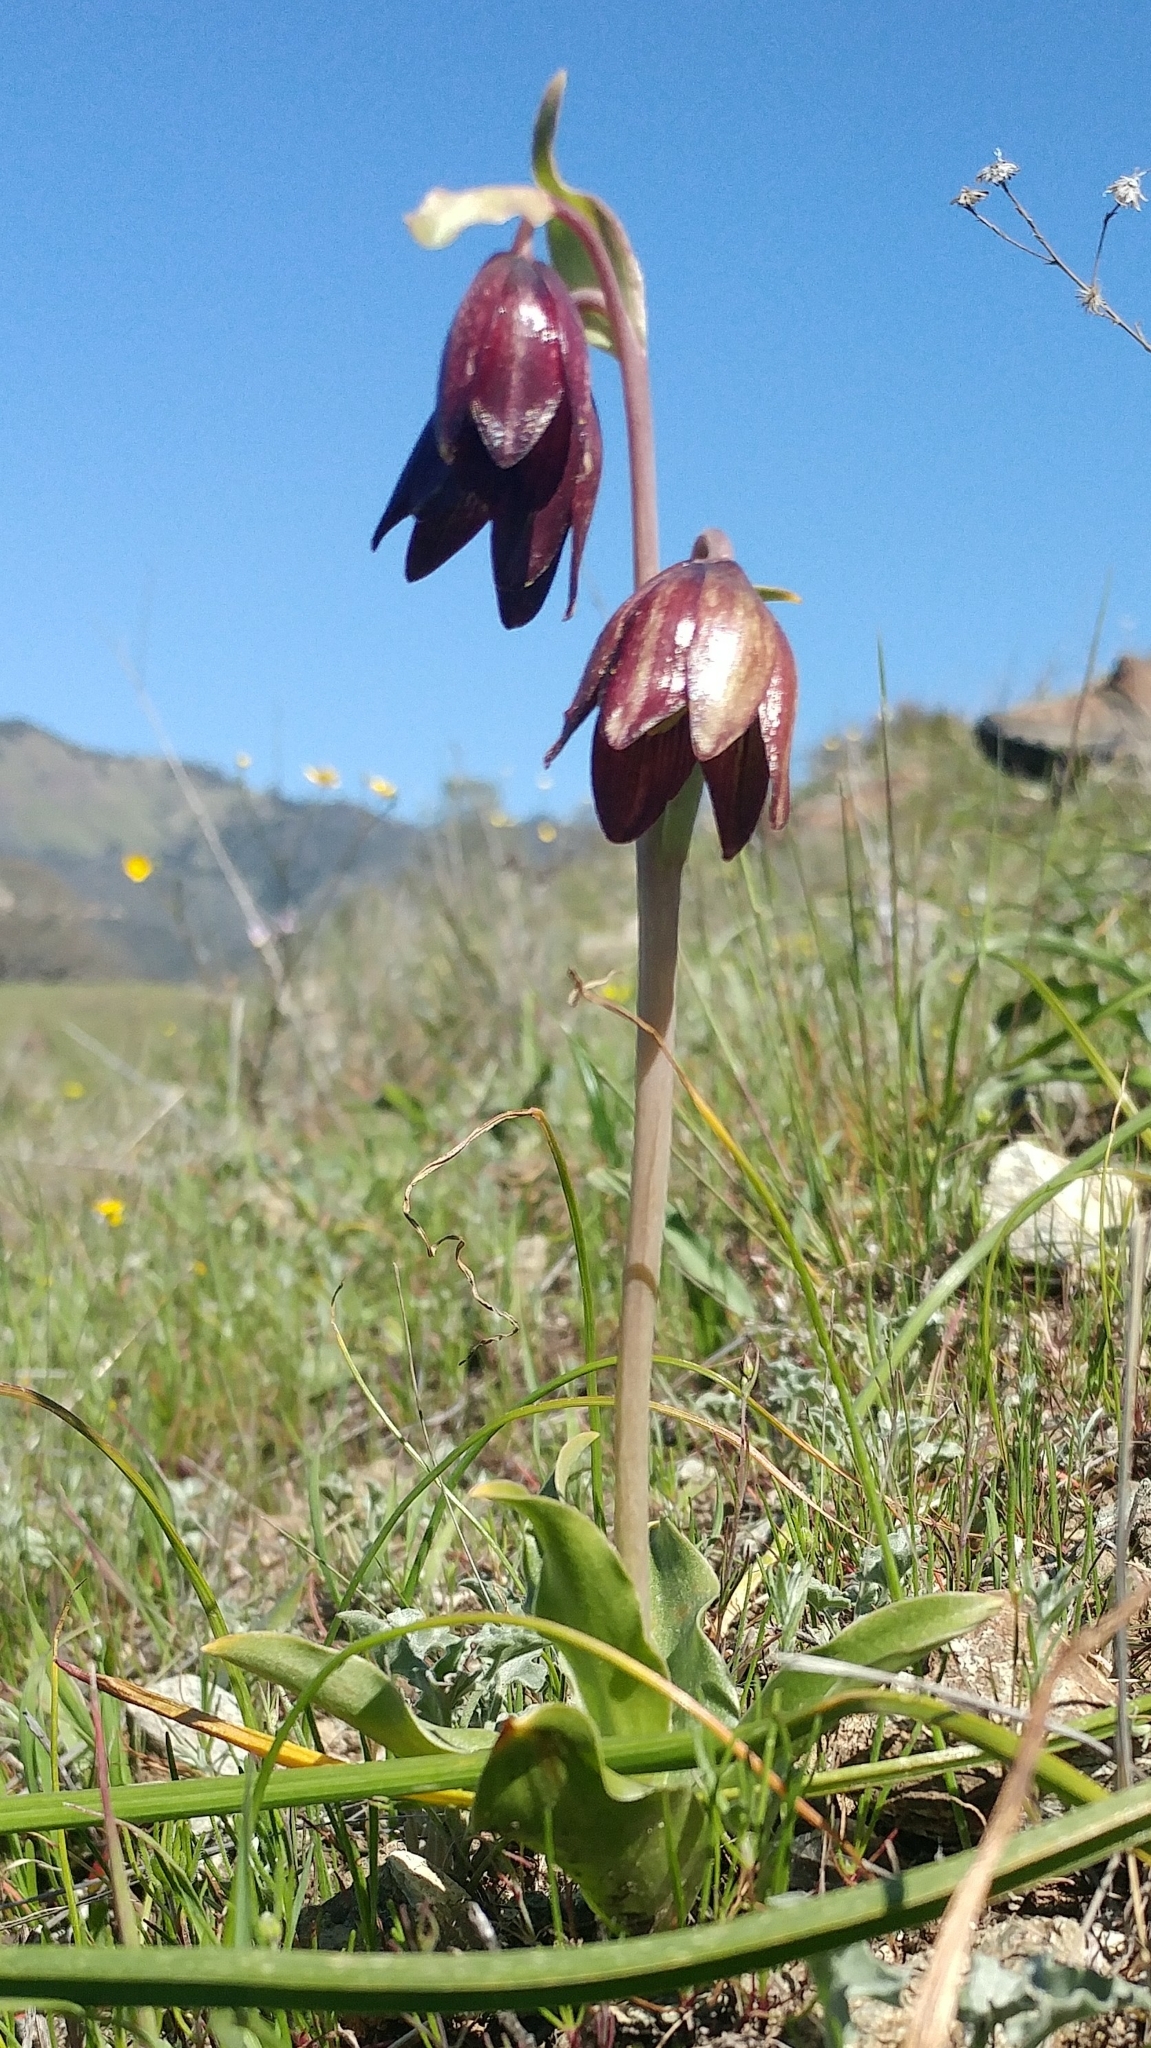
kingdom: Plantae
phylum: Tracheophyta
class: Liliopsida
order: Liliales
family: Liliaceae
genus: Fritillaria
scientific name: Fritillaria biflora
